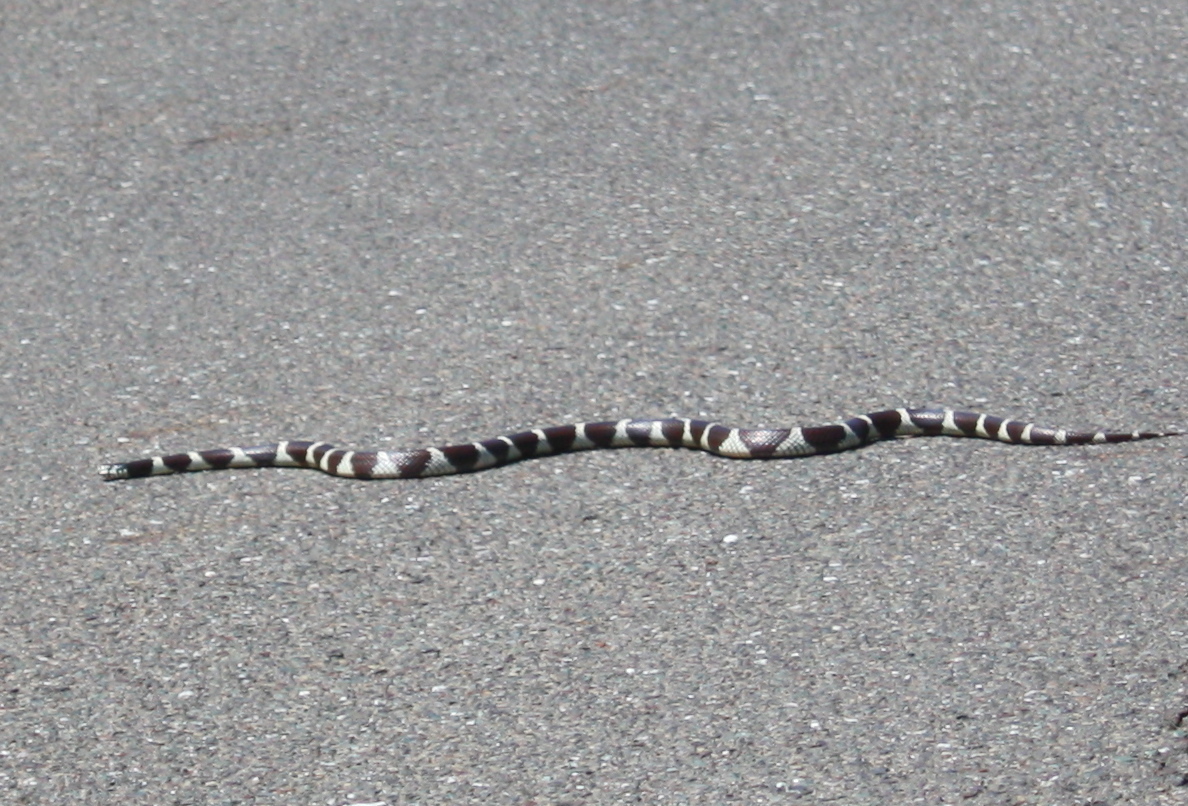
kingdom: Animalia
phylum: Chordata
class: Squamata
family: Colubridae
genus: Lampropeltis
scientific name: Lampropeltis californiae
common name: California kingsnake
